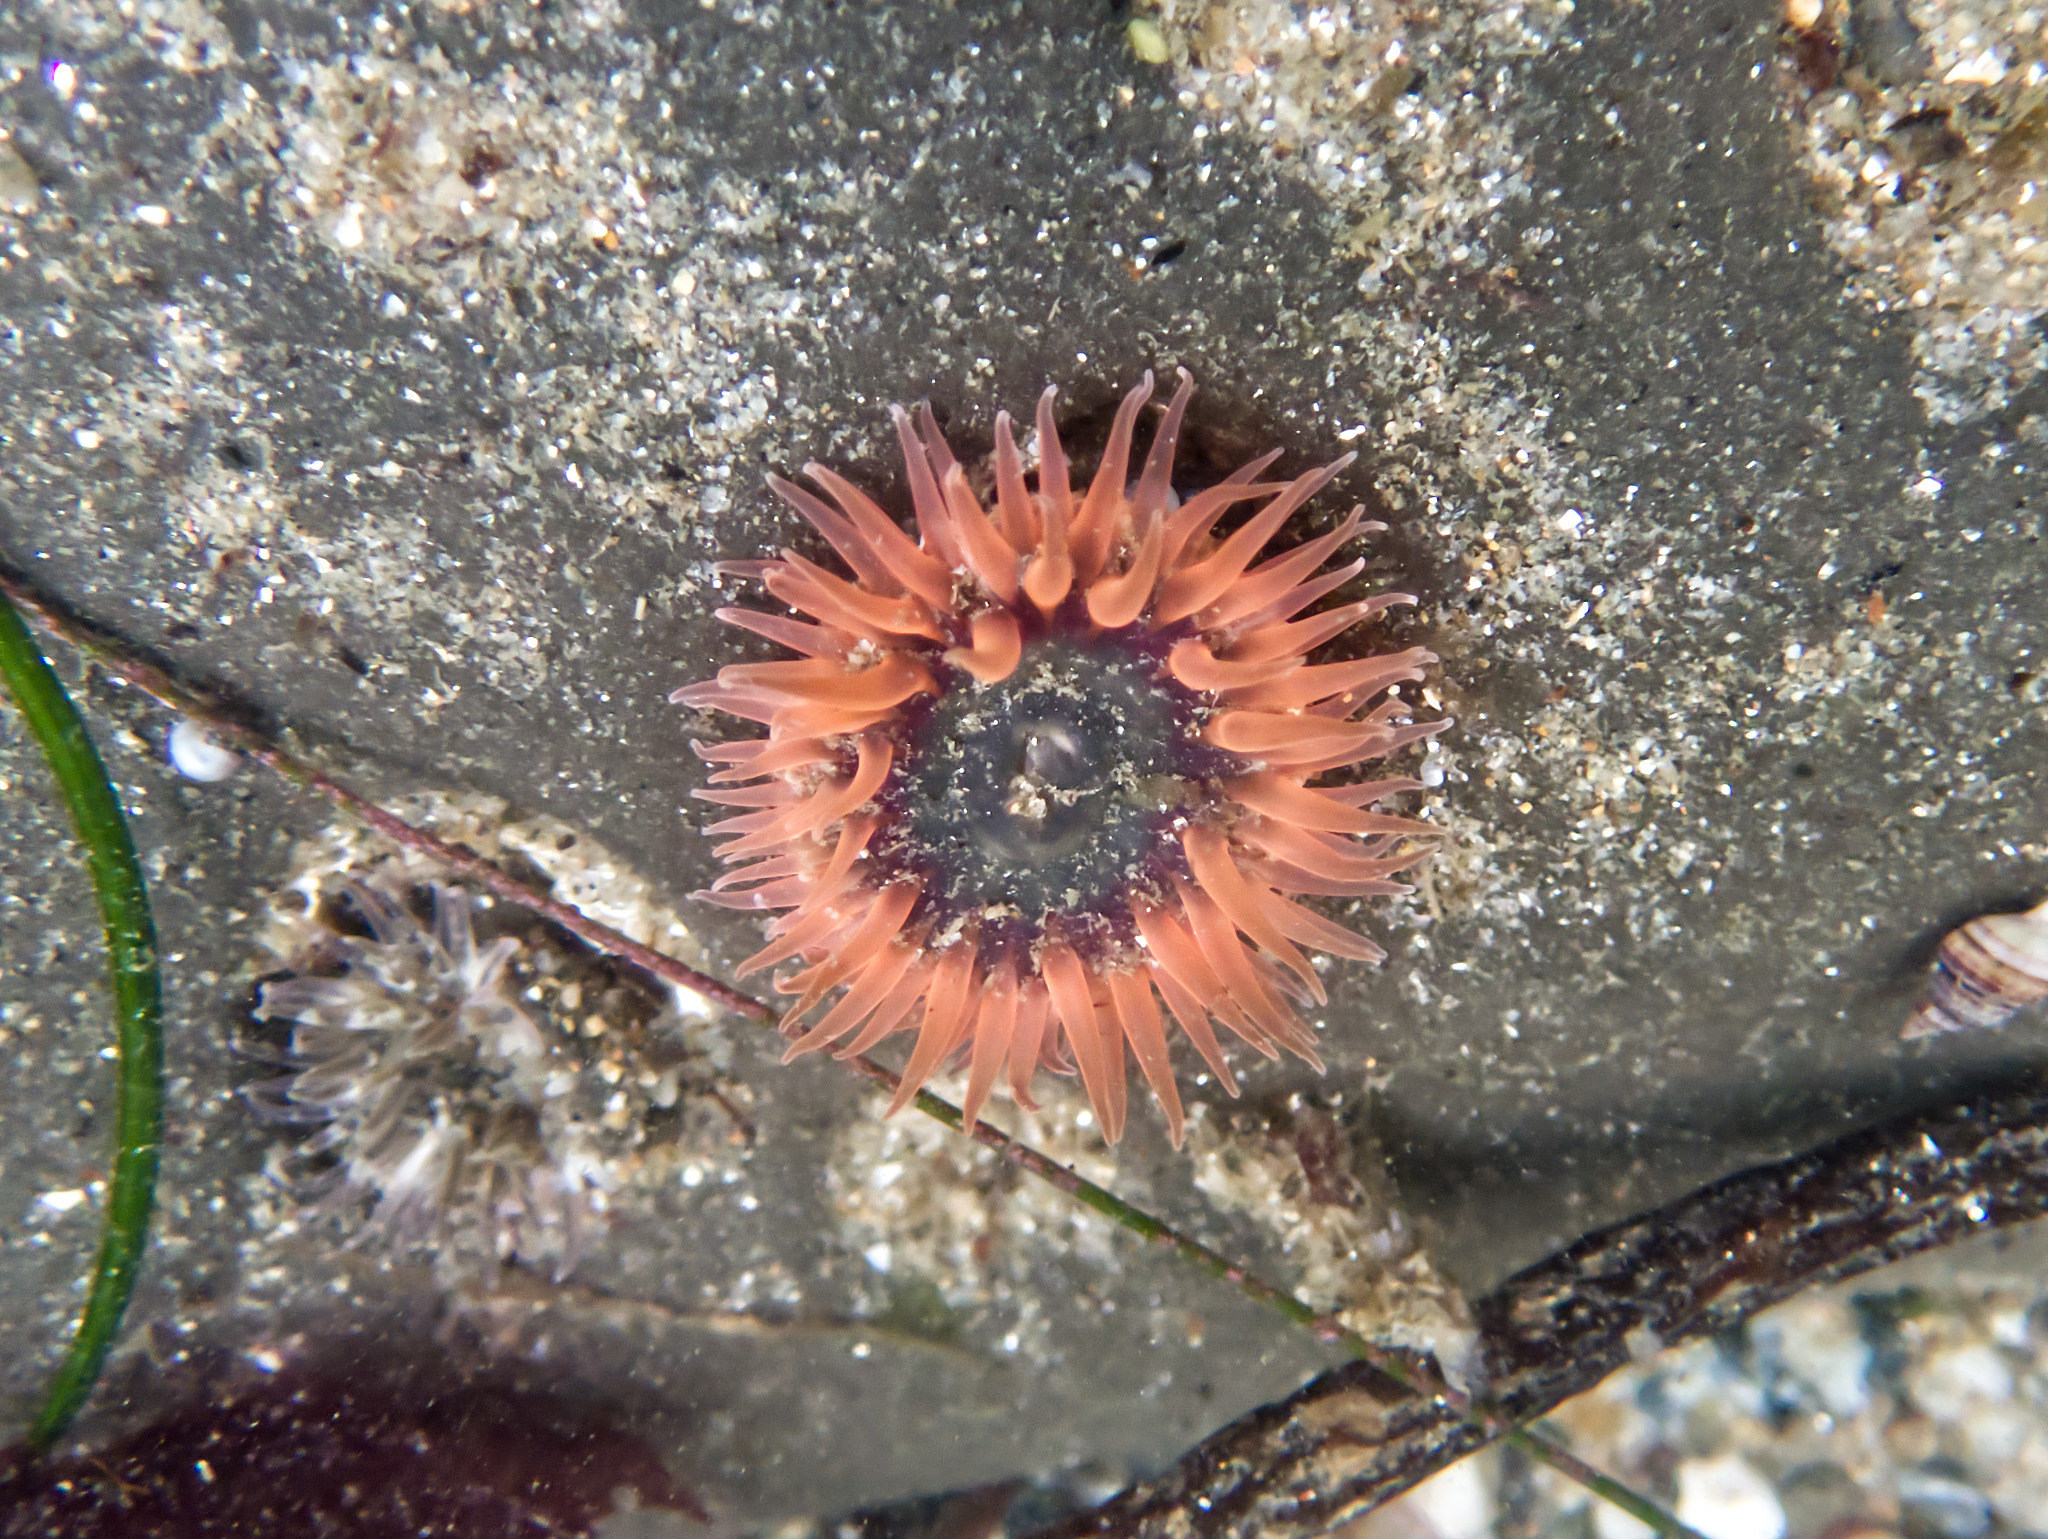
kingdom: Animalia
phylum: Cnidaria
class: Anthozoa
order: Actiniaria
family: Actiniidae
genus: Anthopleura
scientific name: Anthopleura artemisia
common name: Buried sea anemone
